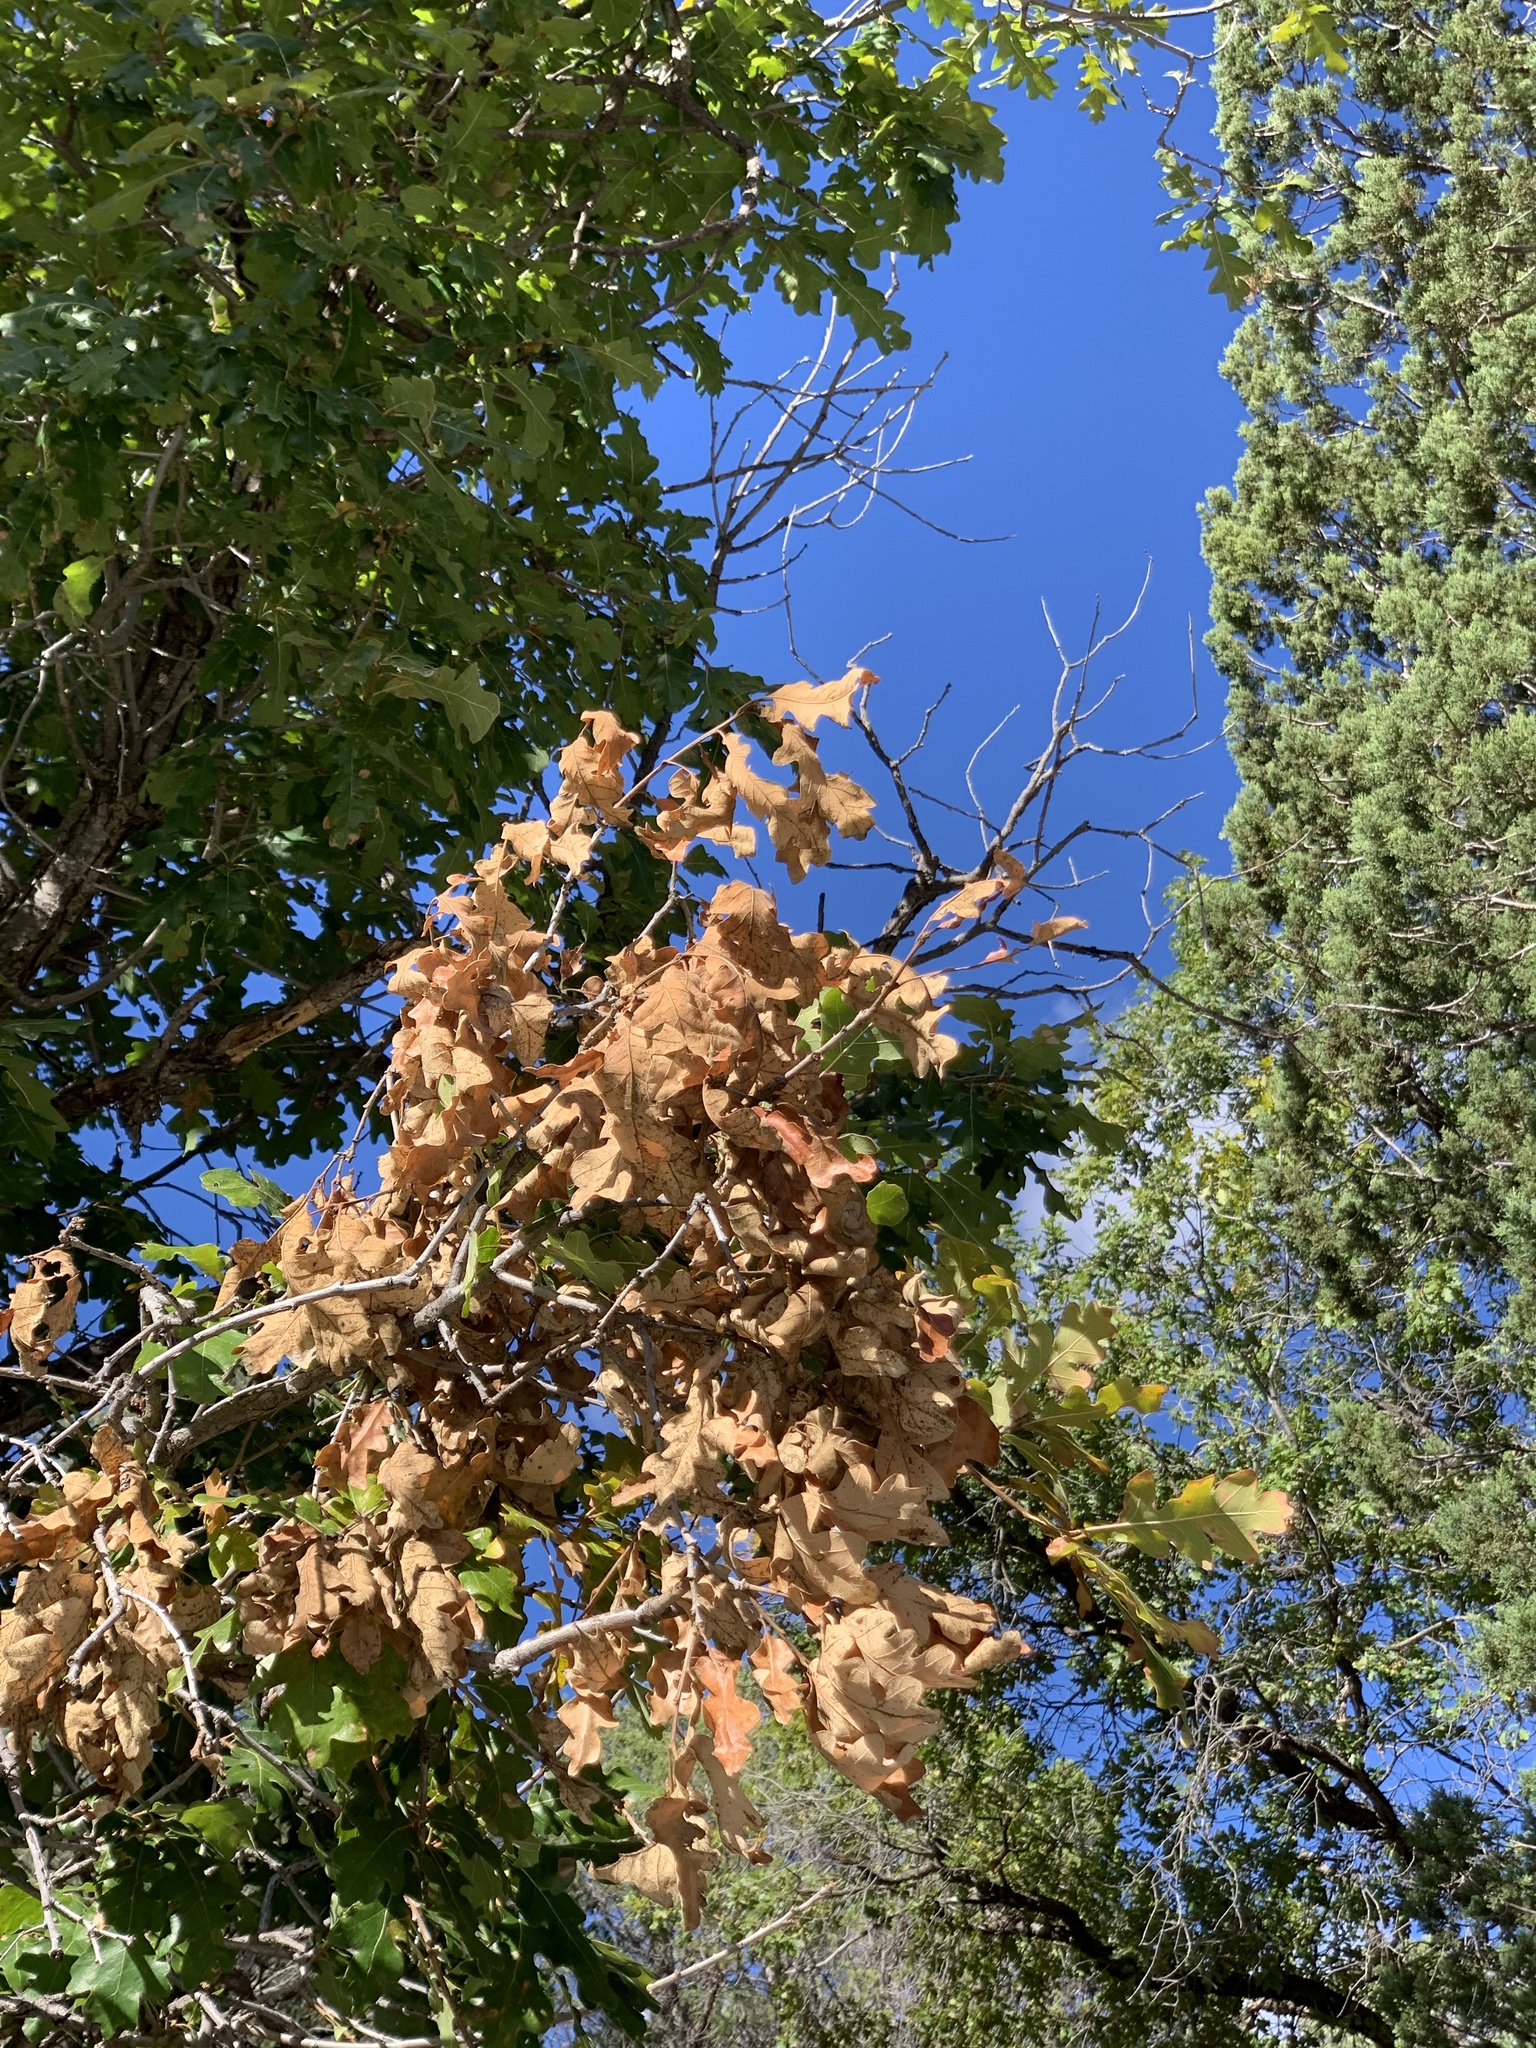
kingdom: Plantae
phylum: Tracheophyta
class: Magnoliopsida
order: Fagales
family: Fagaceae
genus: Quercus
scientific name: Quercus gambelii
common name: Gambel oak
